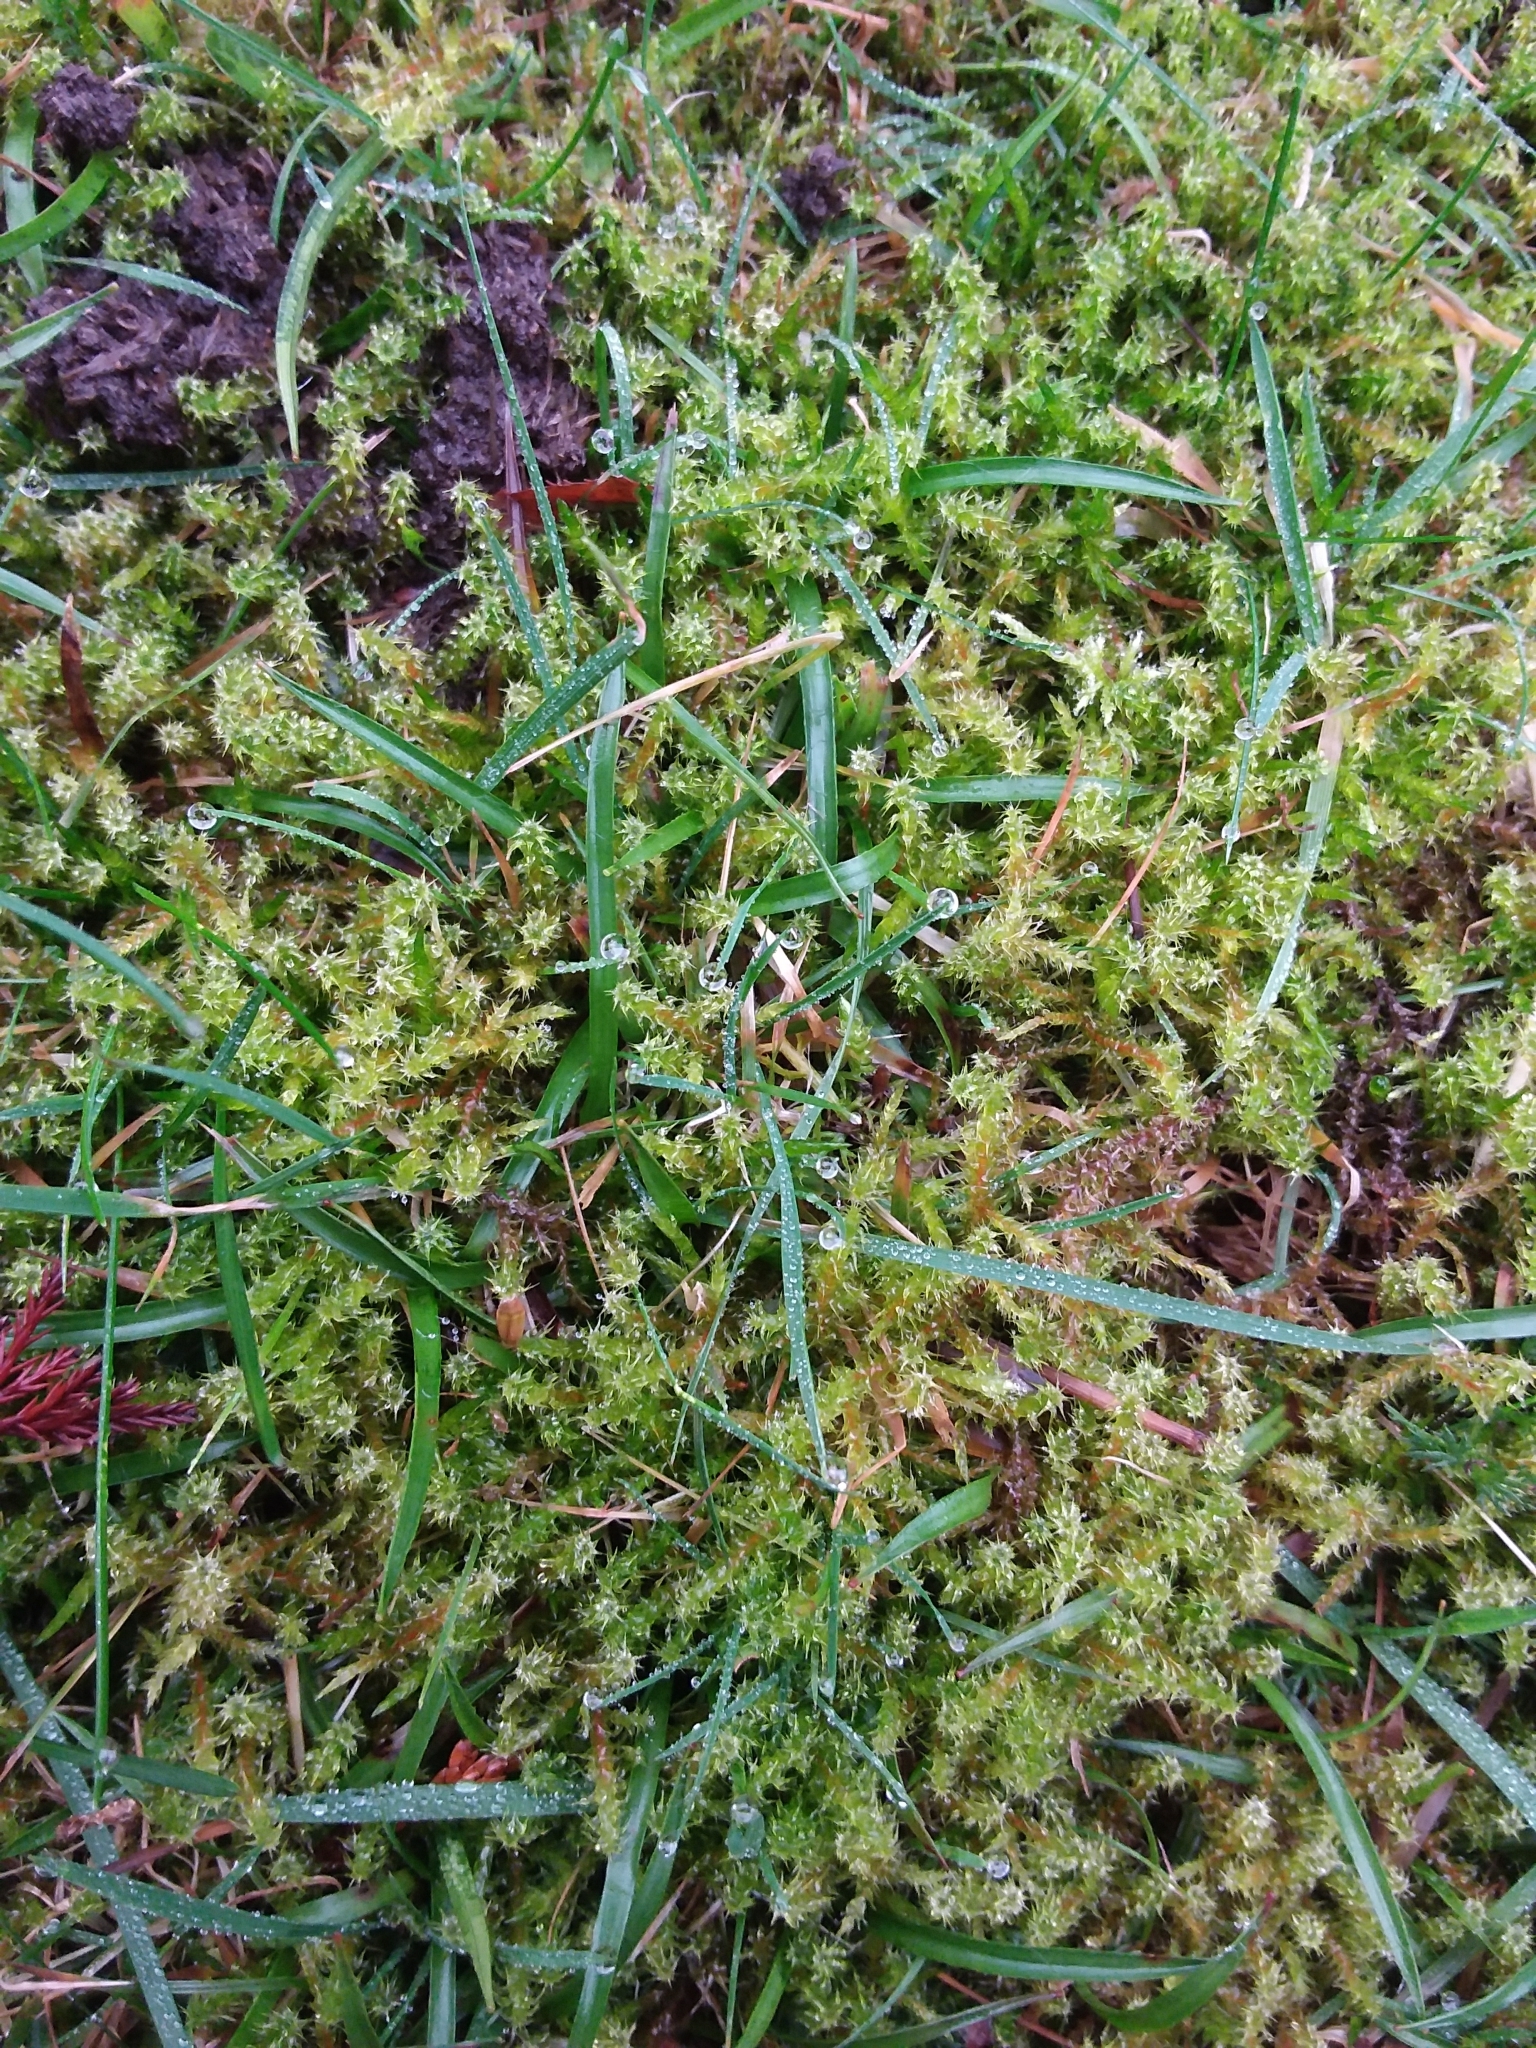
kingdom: Plantae
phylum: Bryophyta
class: Bryopsida
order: Hypnales
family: Hylocomiaceae
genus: Rhytidiadelphus
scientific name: Rhytidiadelphus squarrosus
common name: Springy turf-moss
